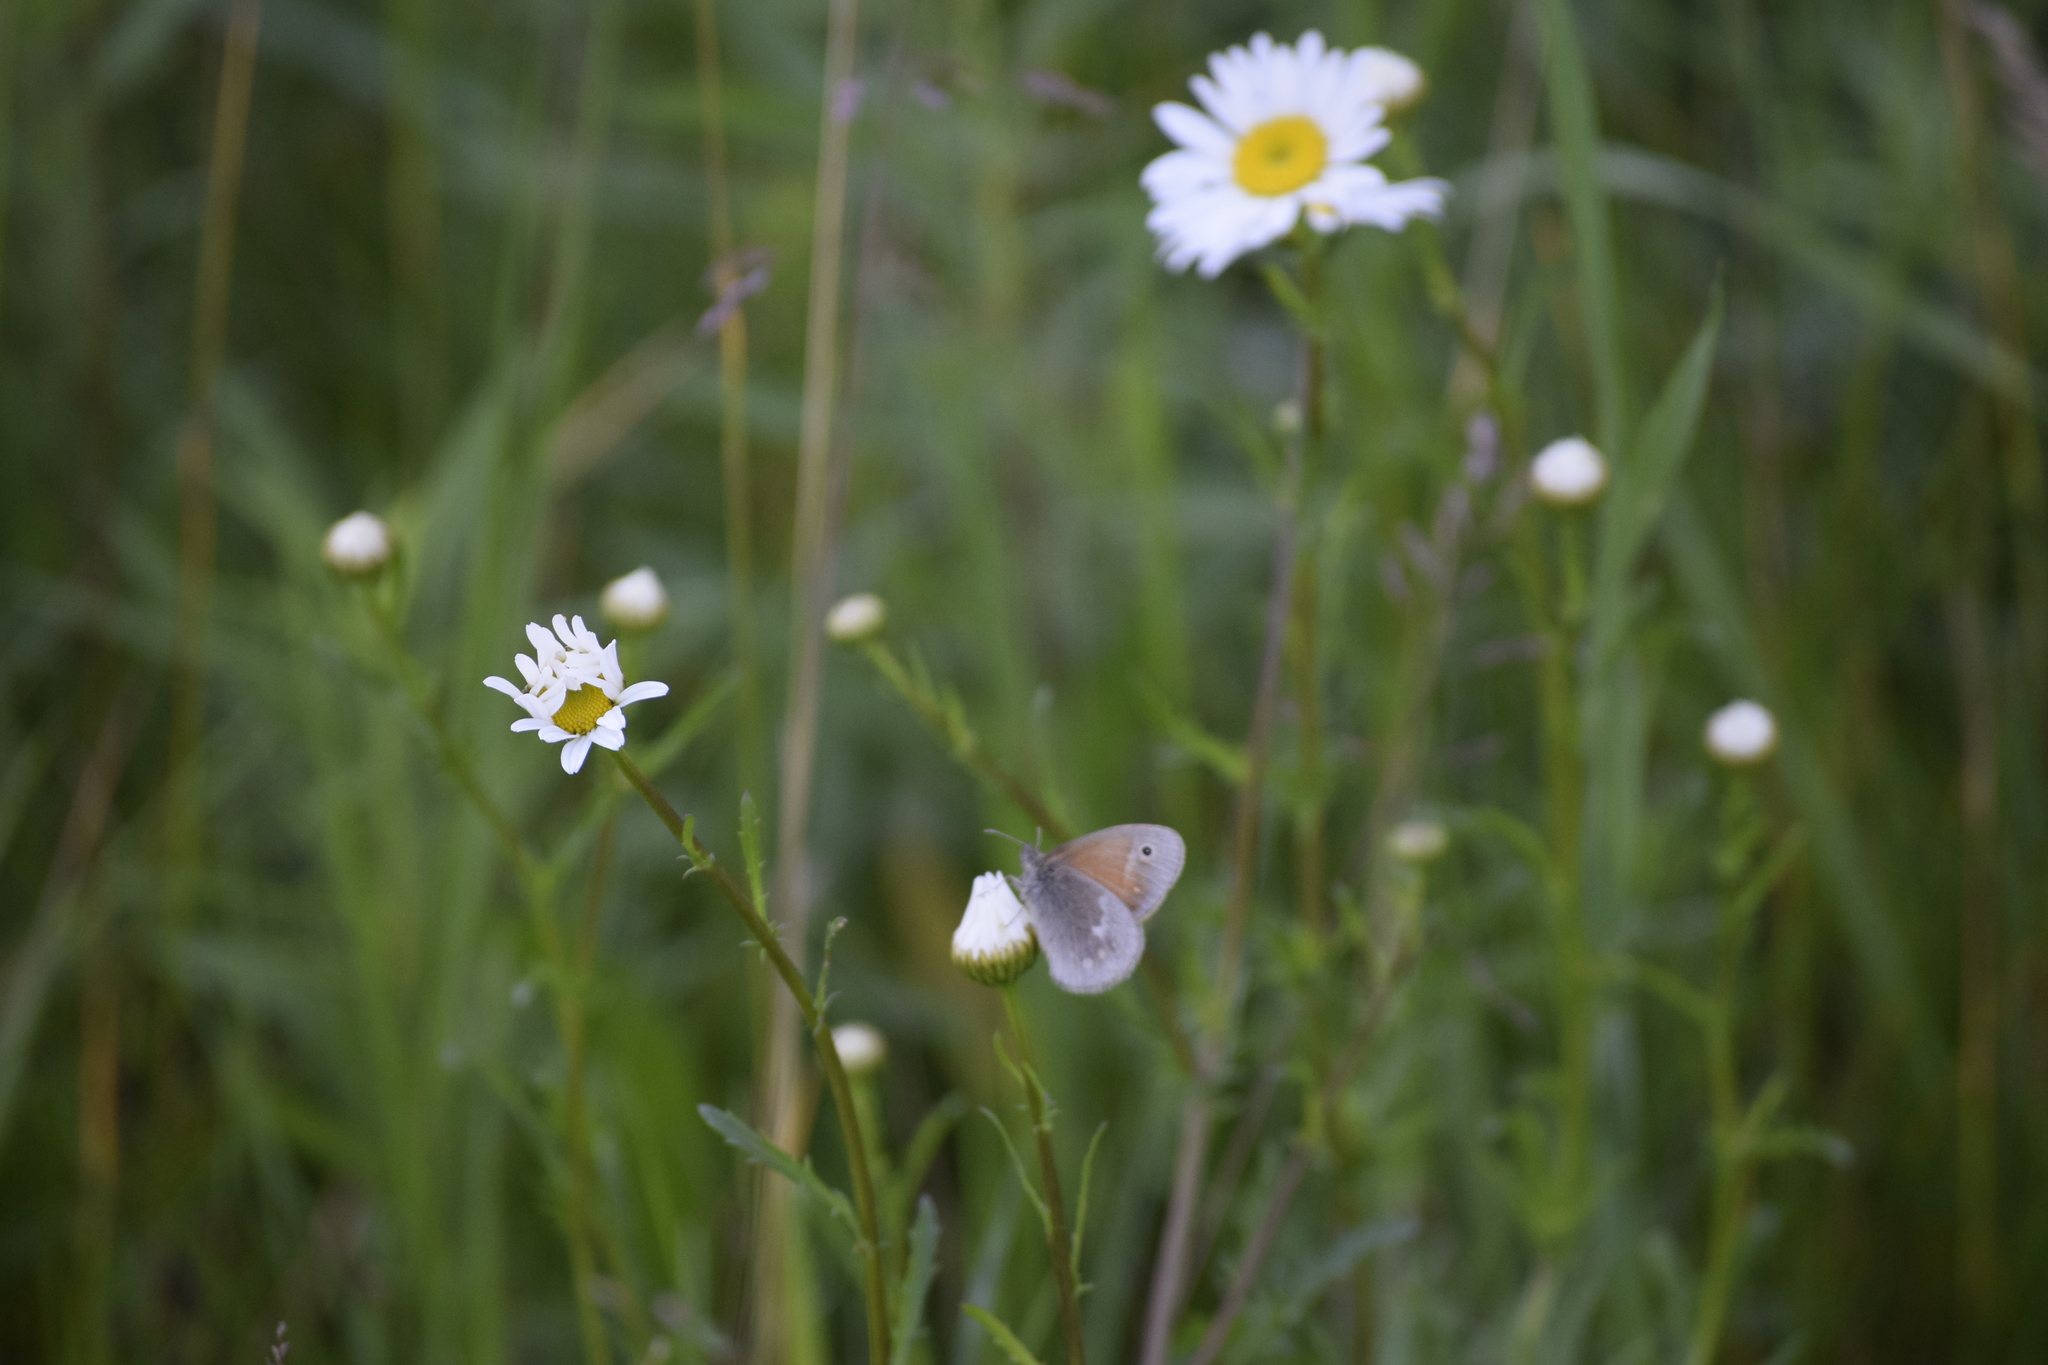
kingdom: Animalia
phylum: Arthropoda
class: Insecta
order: Lepidoptera
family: Nymphalidae
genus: Coenonympha
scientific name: Coenonympha california
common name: Common ringlet
